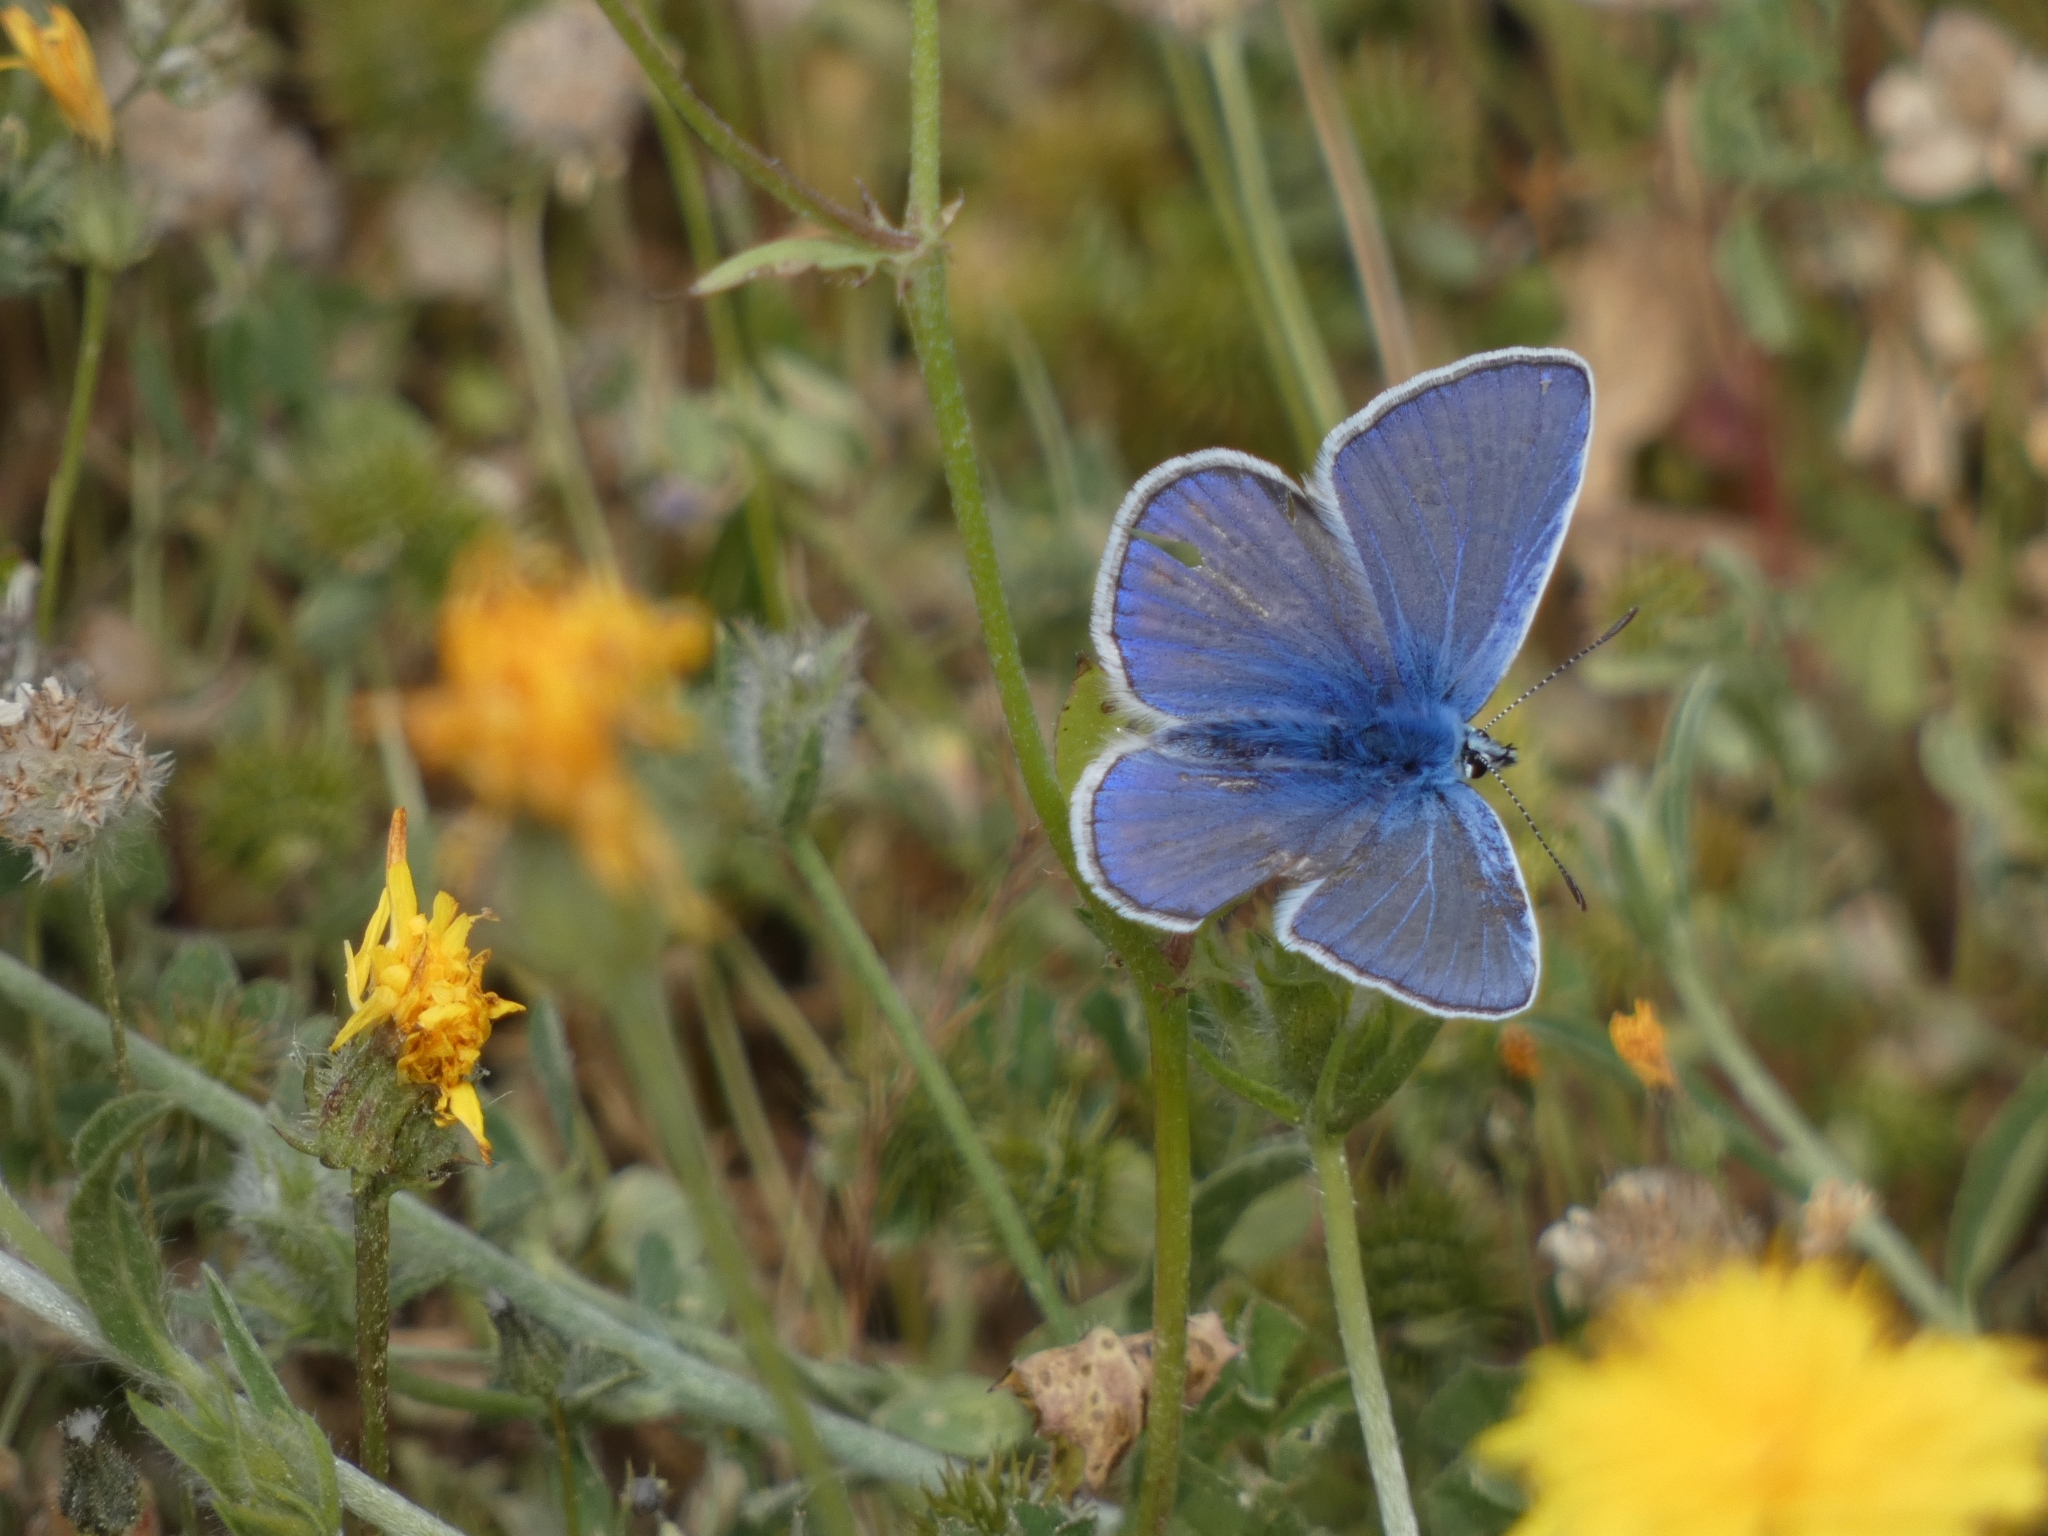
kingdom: Animalia
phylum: Arthropoda
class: Insecta
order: Lepidoptera
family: Lycaenidae
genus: Polyommatus
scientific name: Polyommatus icarus
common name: Common blue
